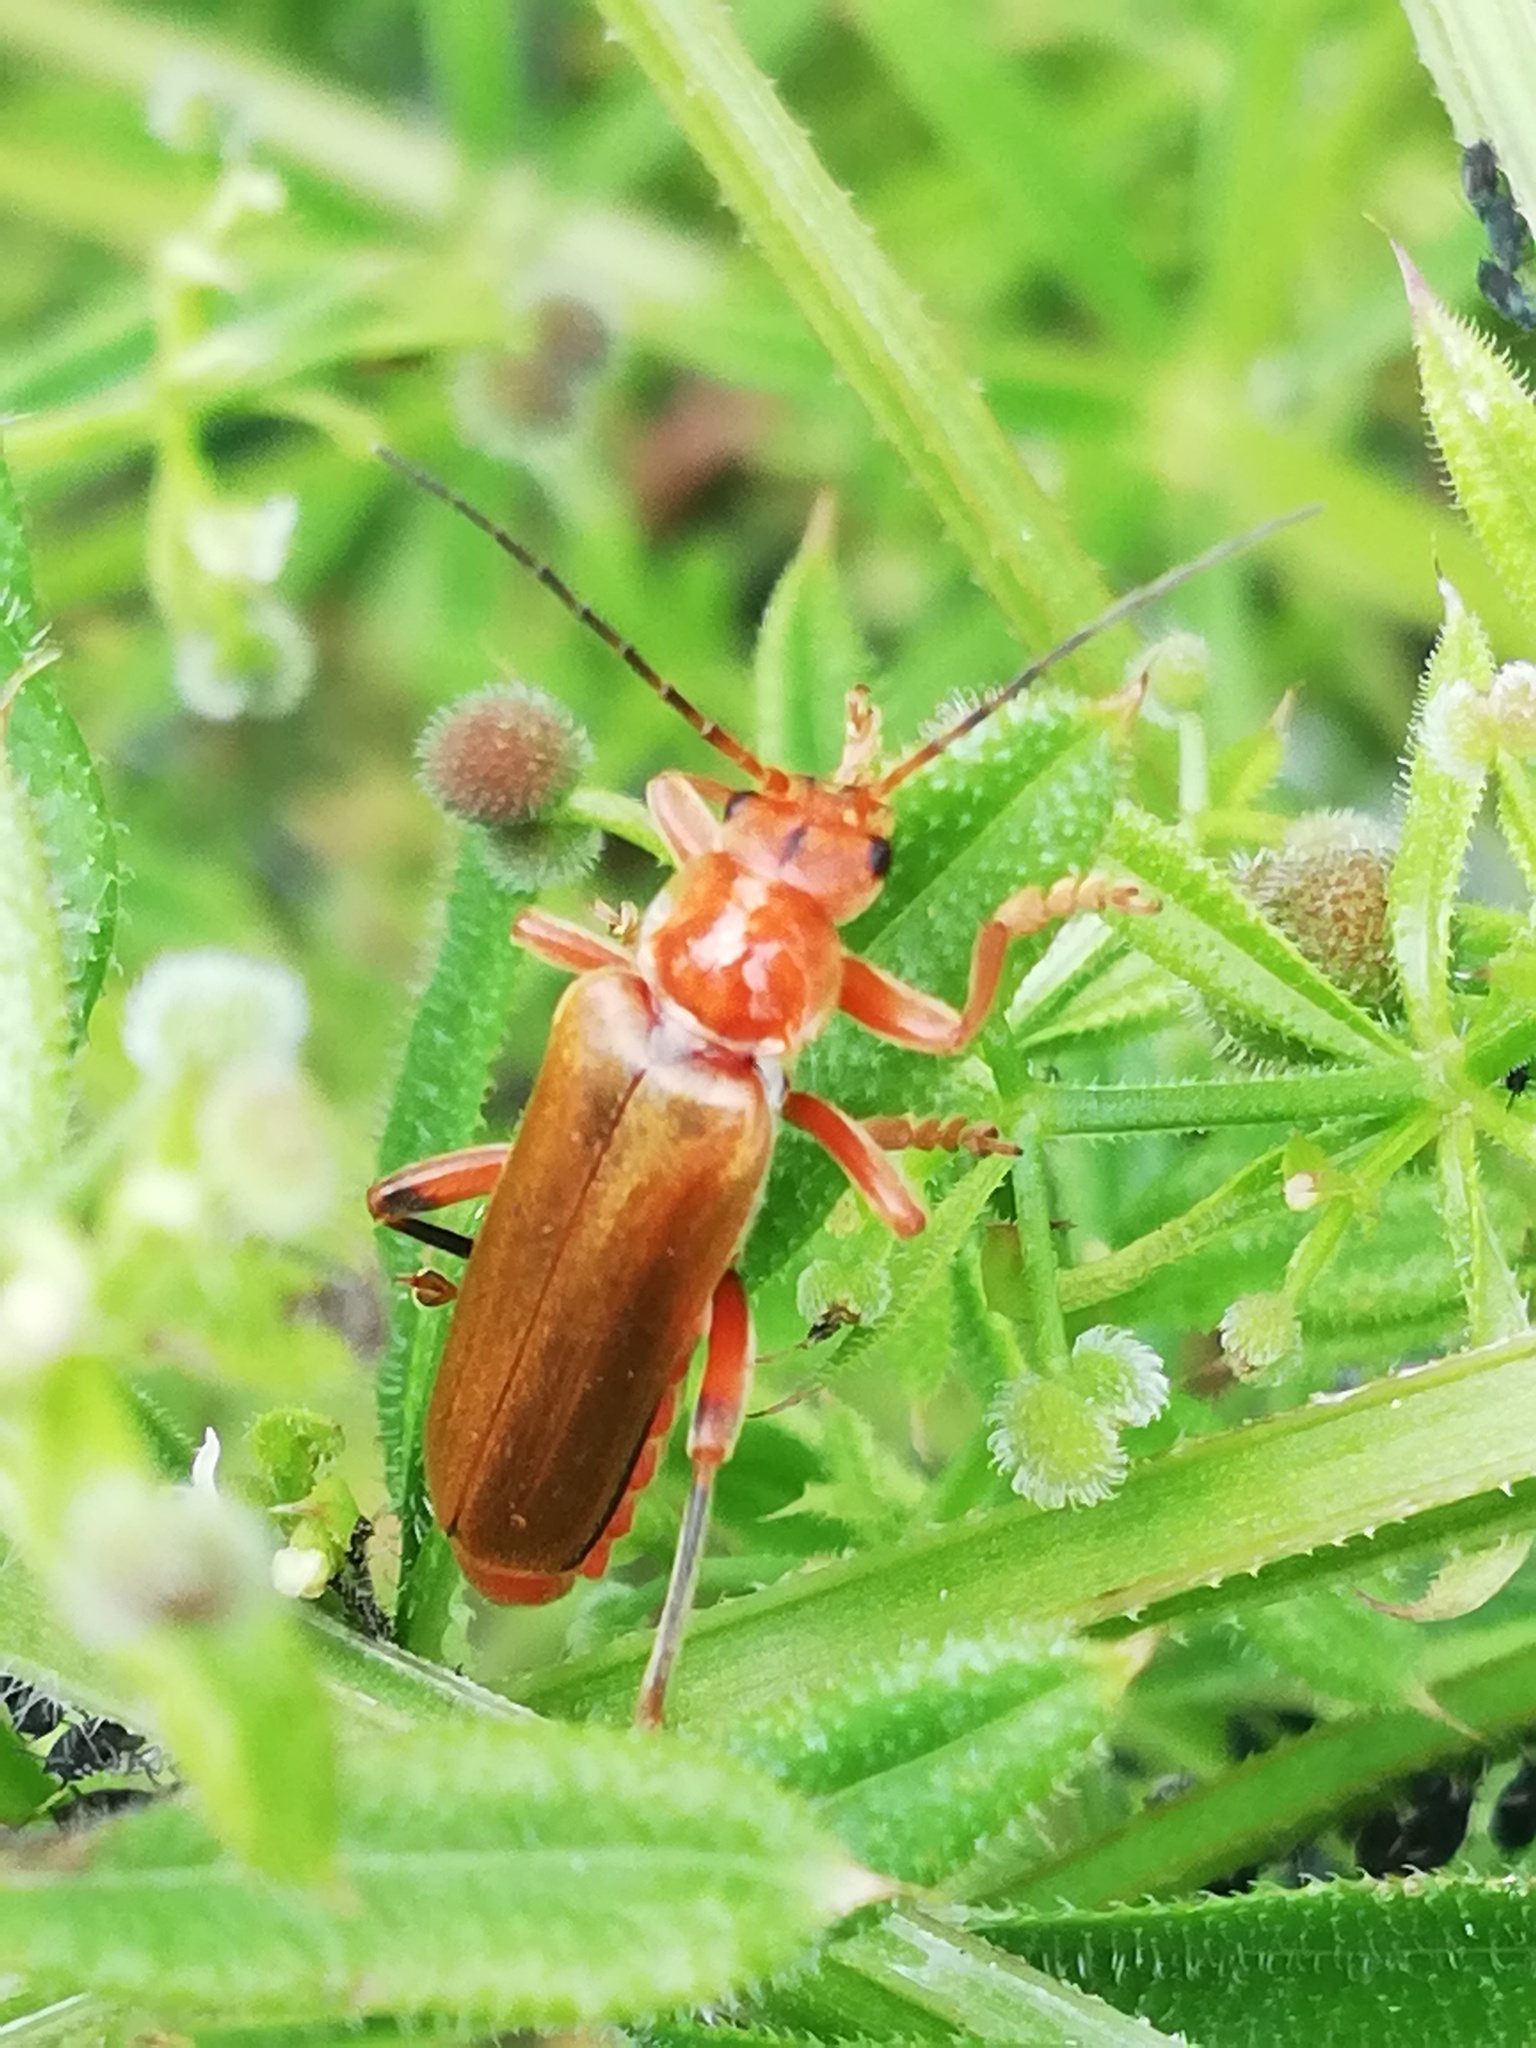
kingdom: Animalia
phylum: Arthropoda
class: Insecta
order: Coleoptera
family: Cantharidae
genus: Cantharis
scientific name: Cantharis livida
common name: Livid soldier beetle
